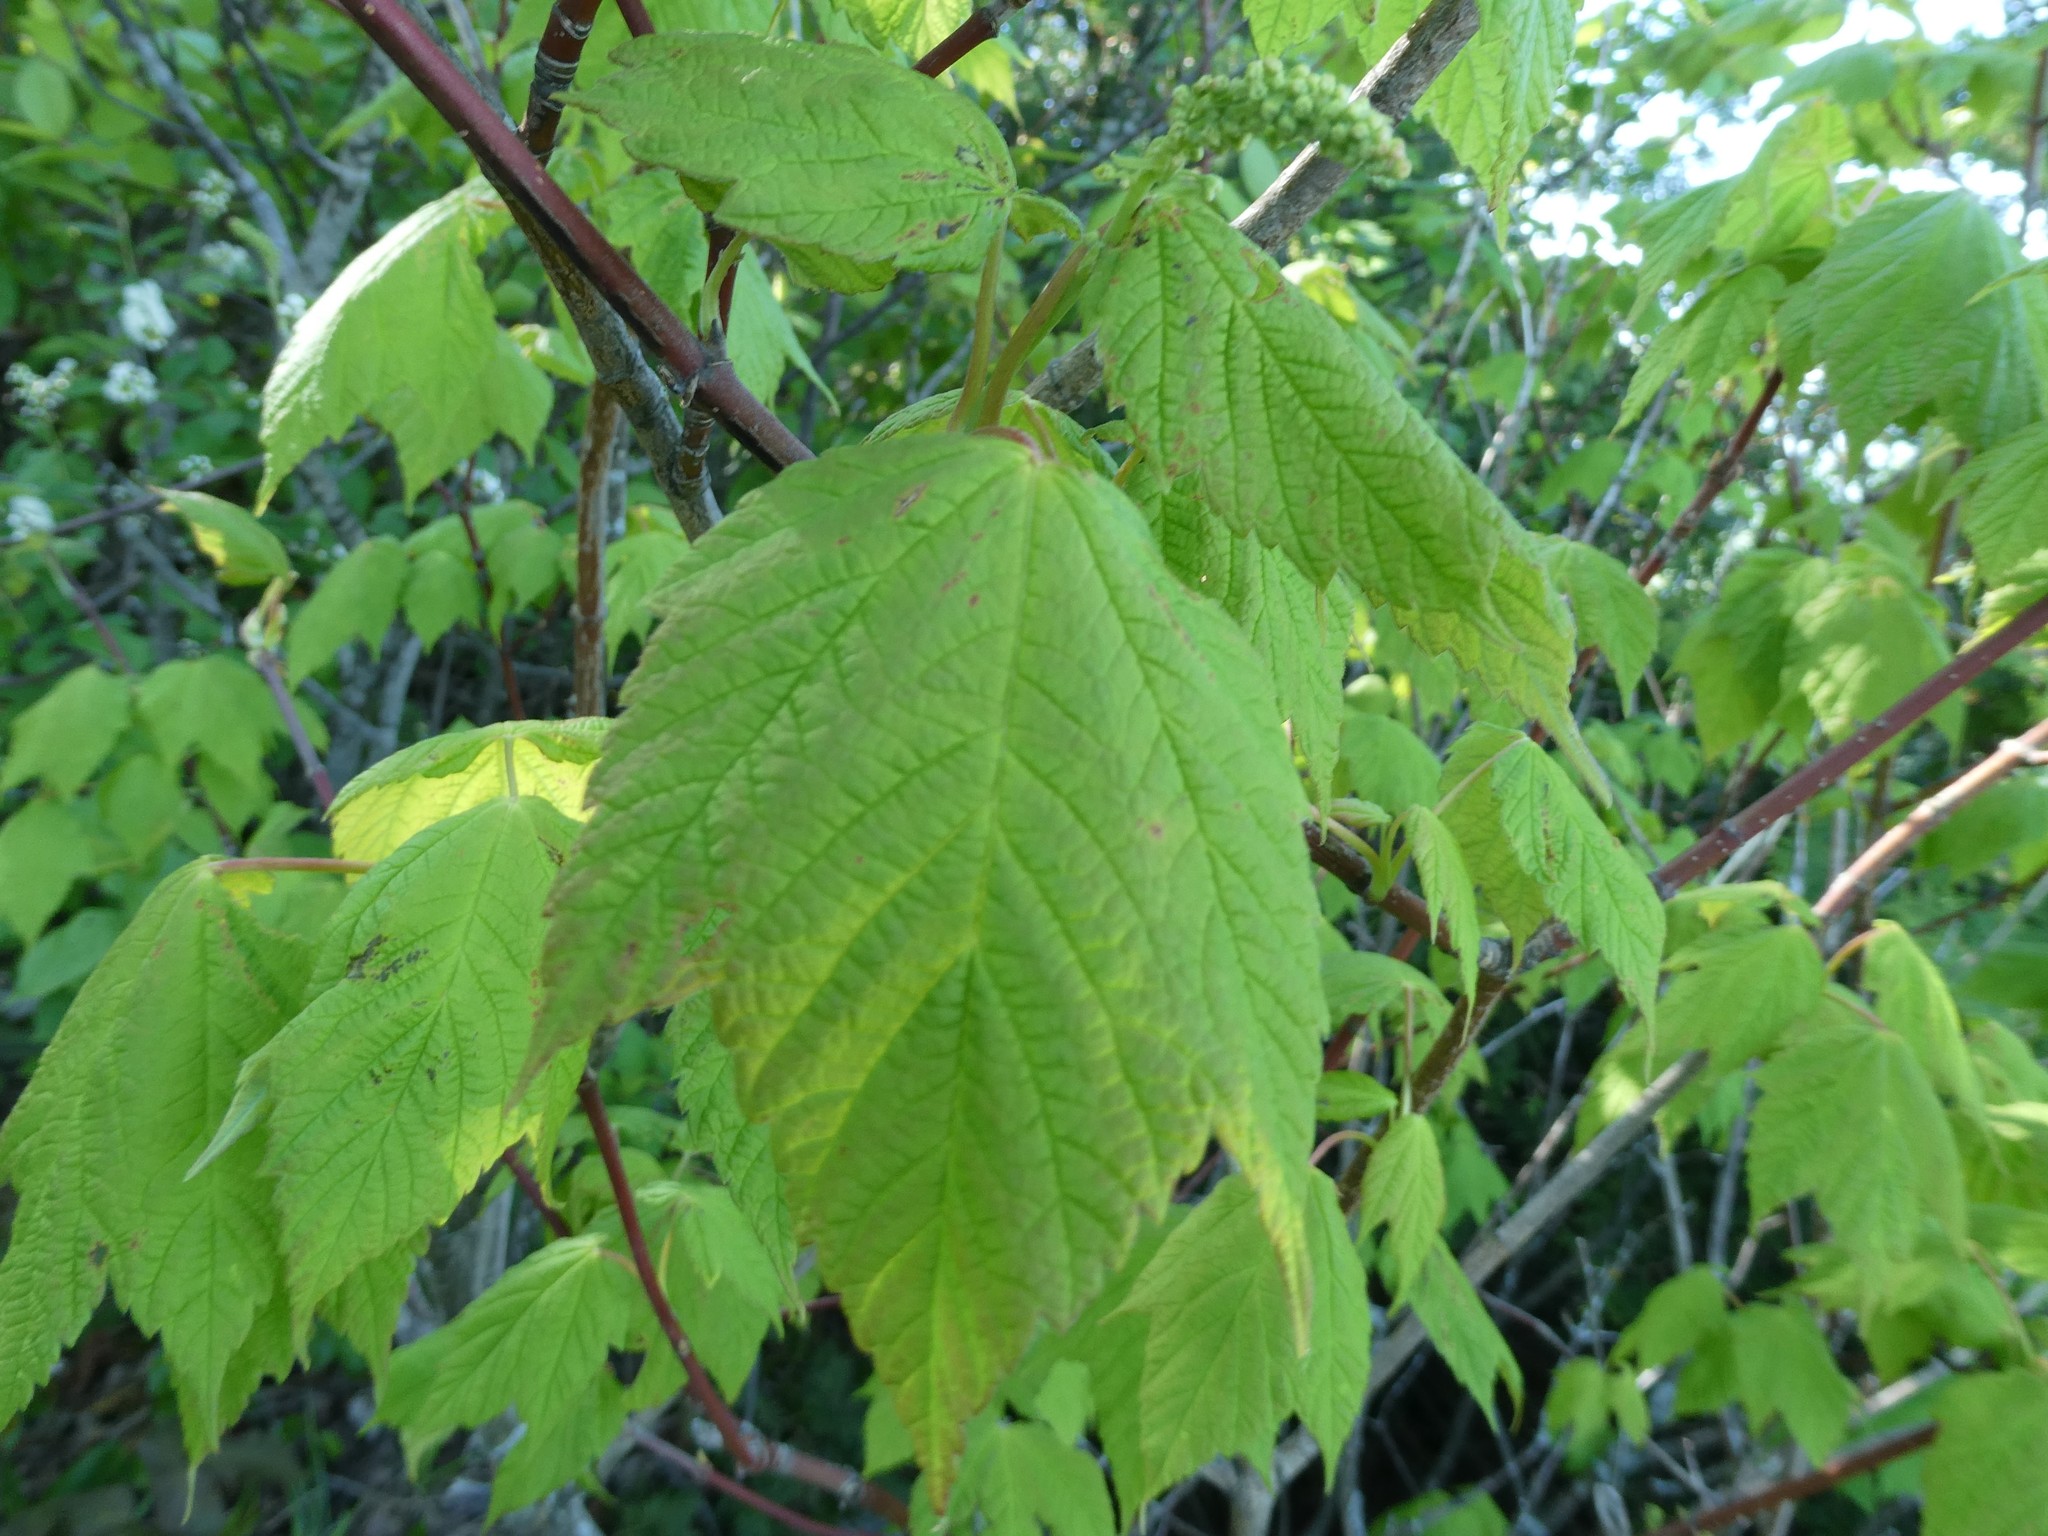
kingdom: Plantae
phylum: Tracheophyta
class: Magnoliopsida
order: Sapindales
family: Sapindaceae
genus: Acer
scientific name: Acer spicatum
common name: Mountain maple
